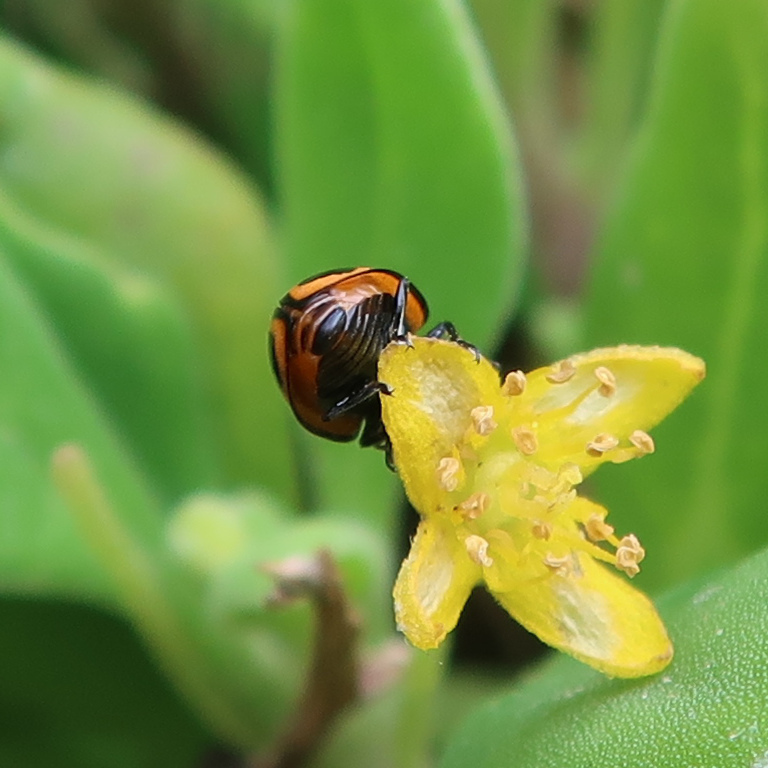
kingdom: Animalia
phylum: Arthropoda
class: Insecta
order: Coleoptera
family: Coccinellidae
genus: Micraspis
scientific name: Micraspis frenata
